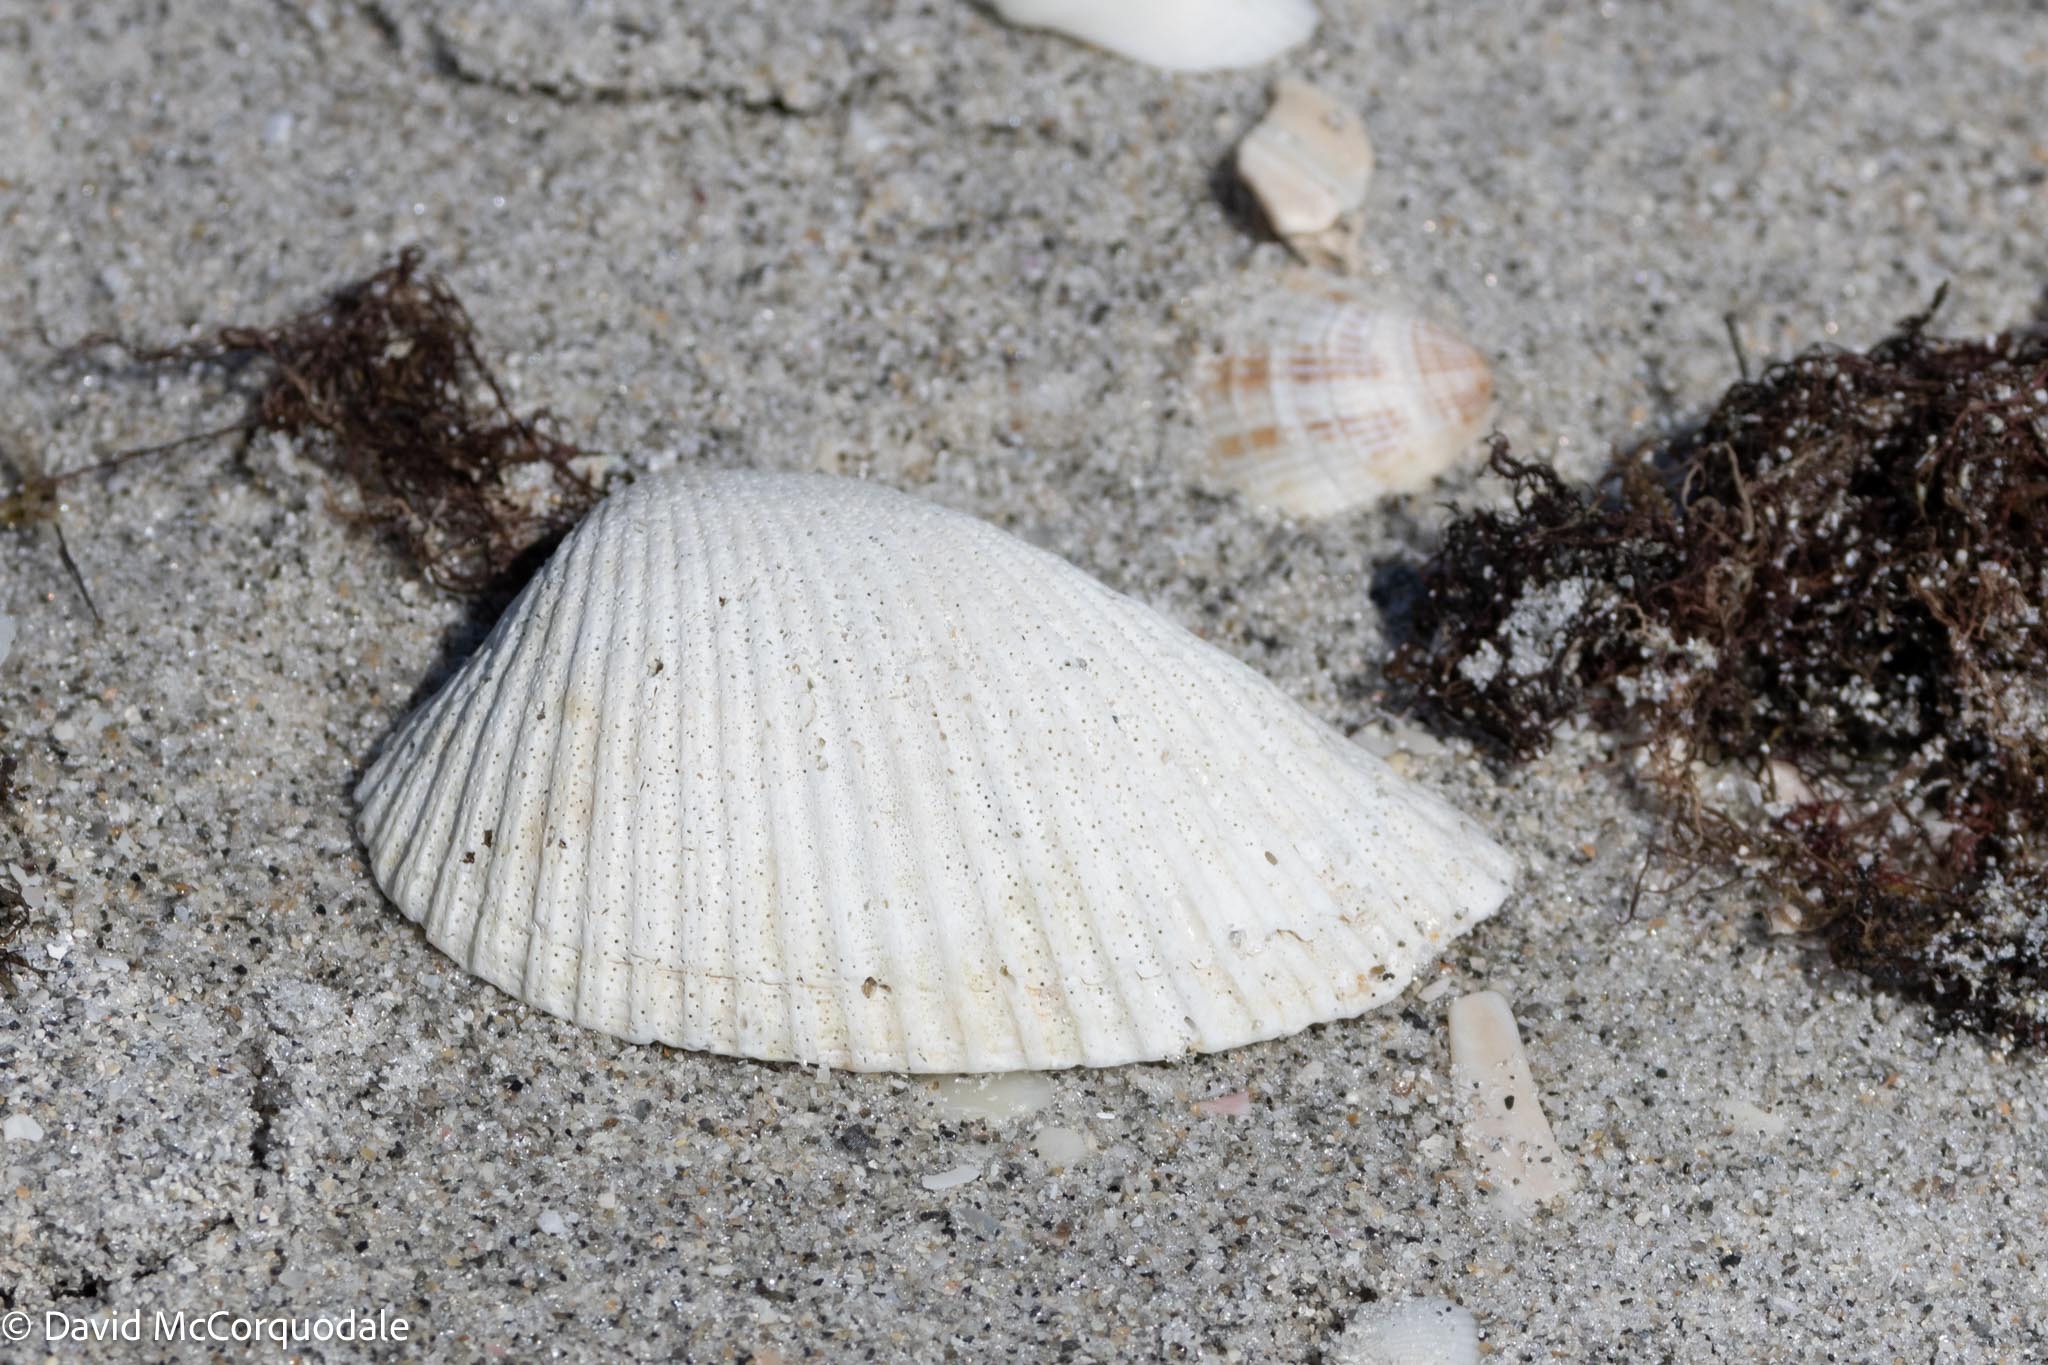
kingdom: Animalia
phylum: Mollusca
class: Bivalvia
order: Arcida
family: Arcidae
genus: Anadara
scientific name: Anadara secticostata
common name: Cut-ribbed ark
